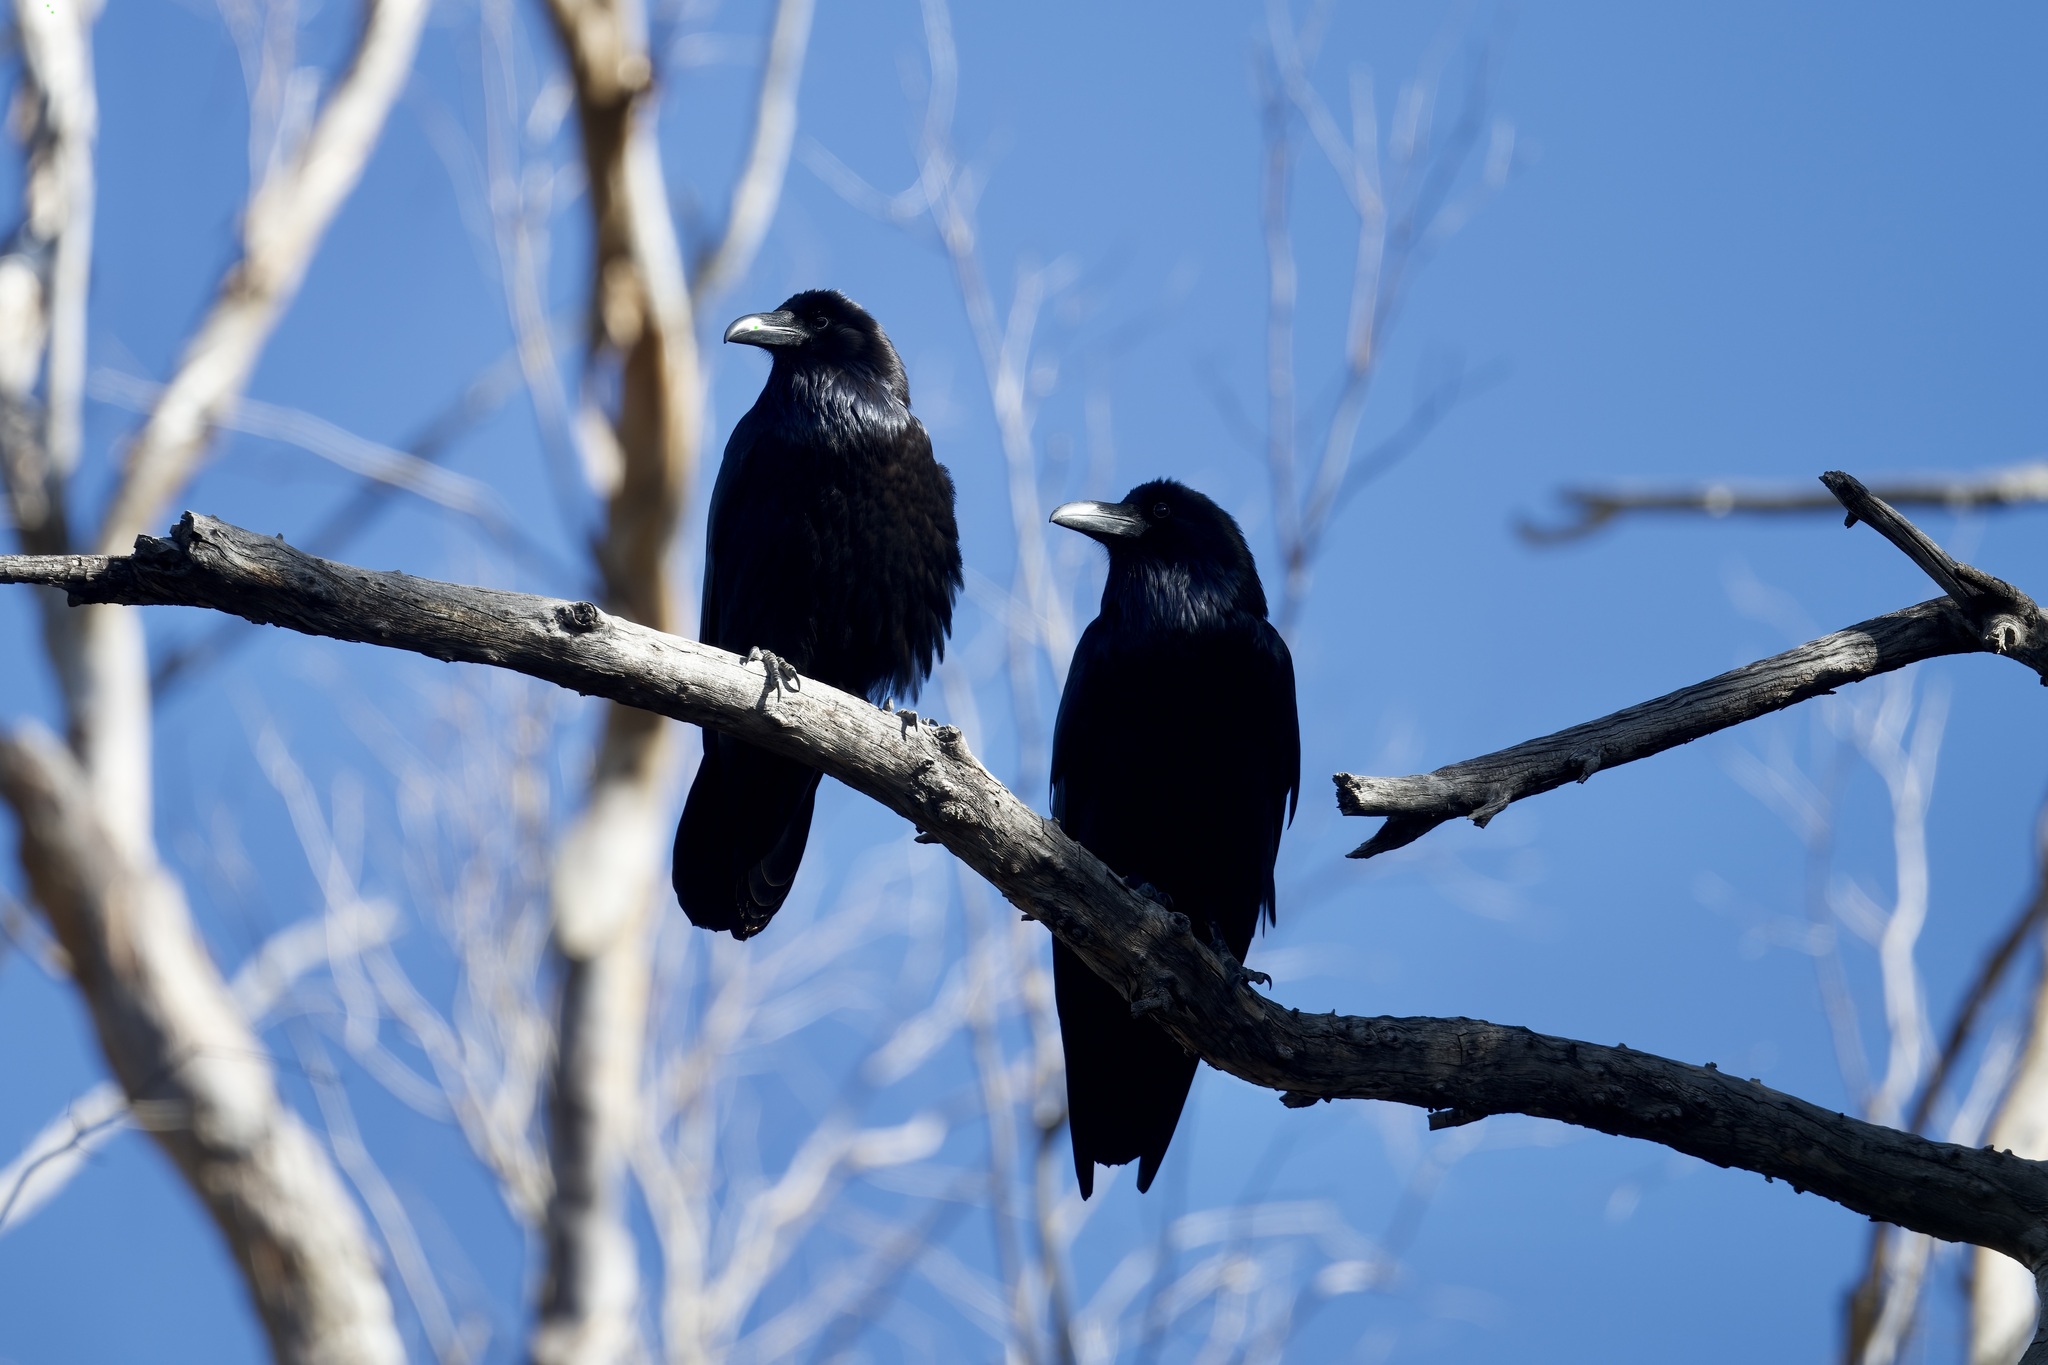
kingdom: Animalia
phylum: Chordata
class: Aves
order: Passeriformes
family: Corvidae
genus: Corvus
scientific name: Corvus corax
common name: Common raven
